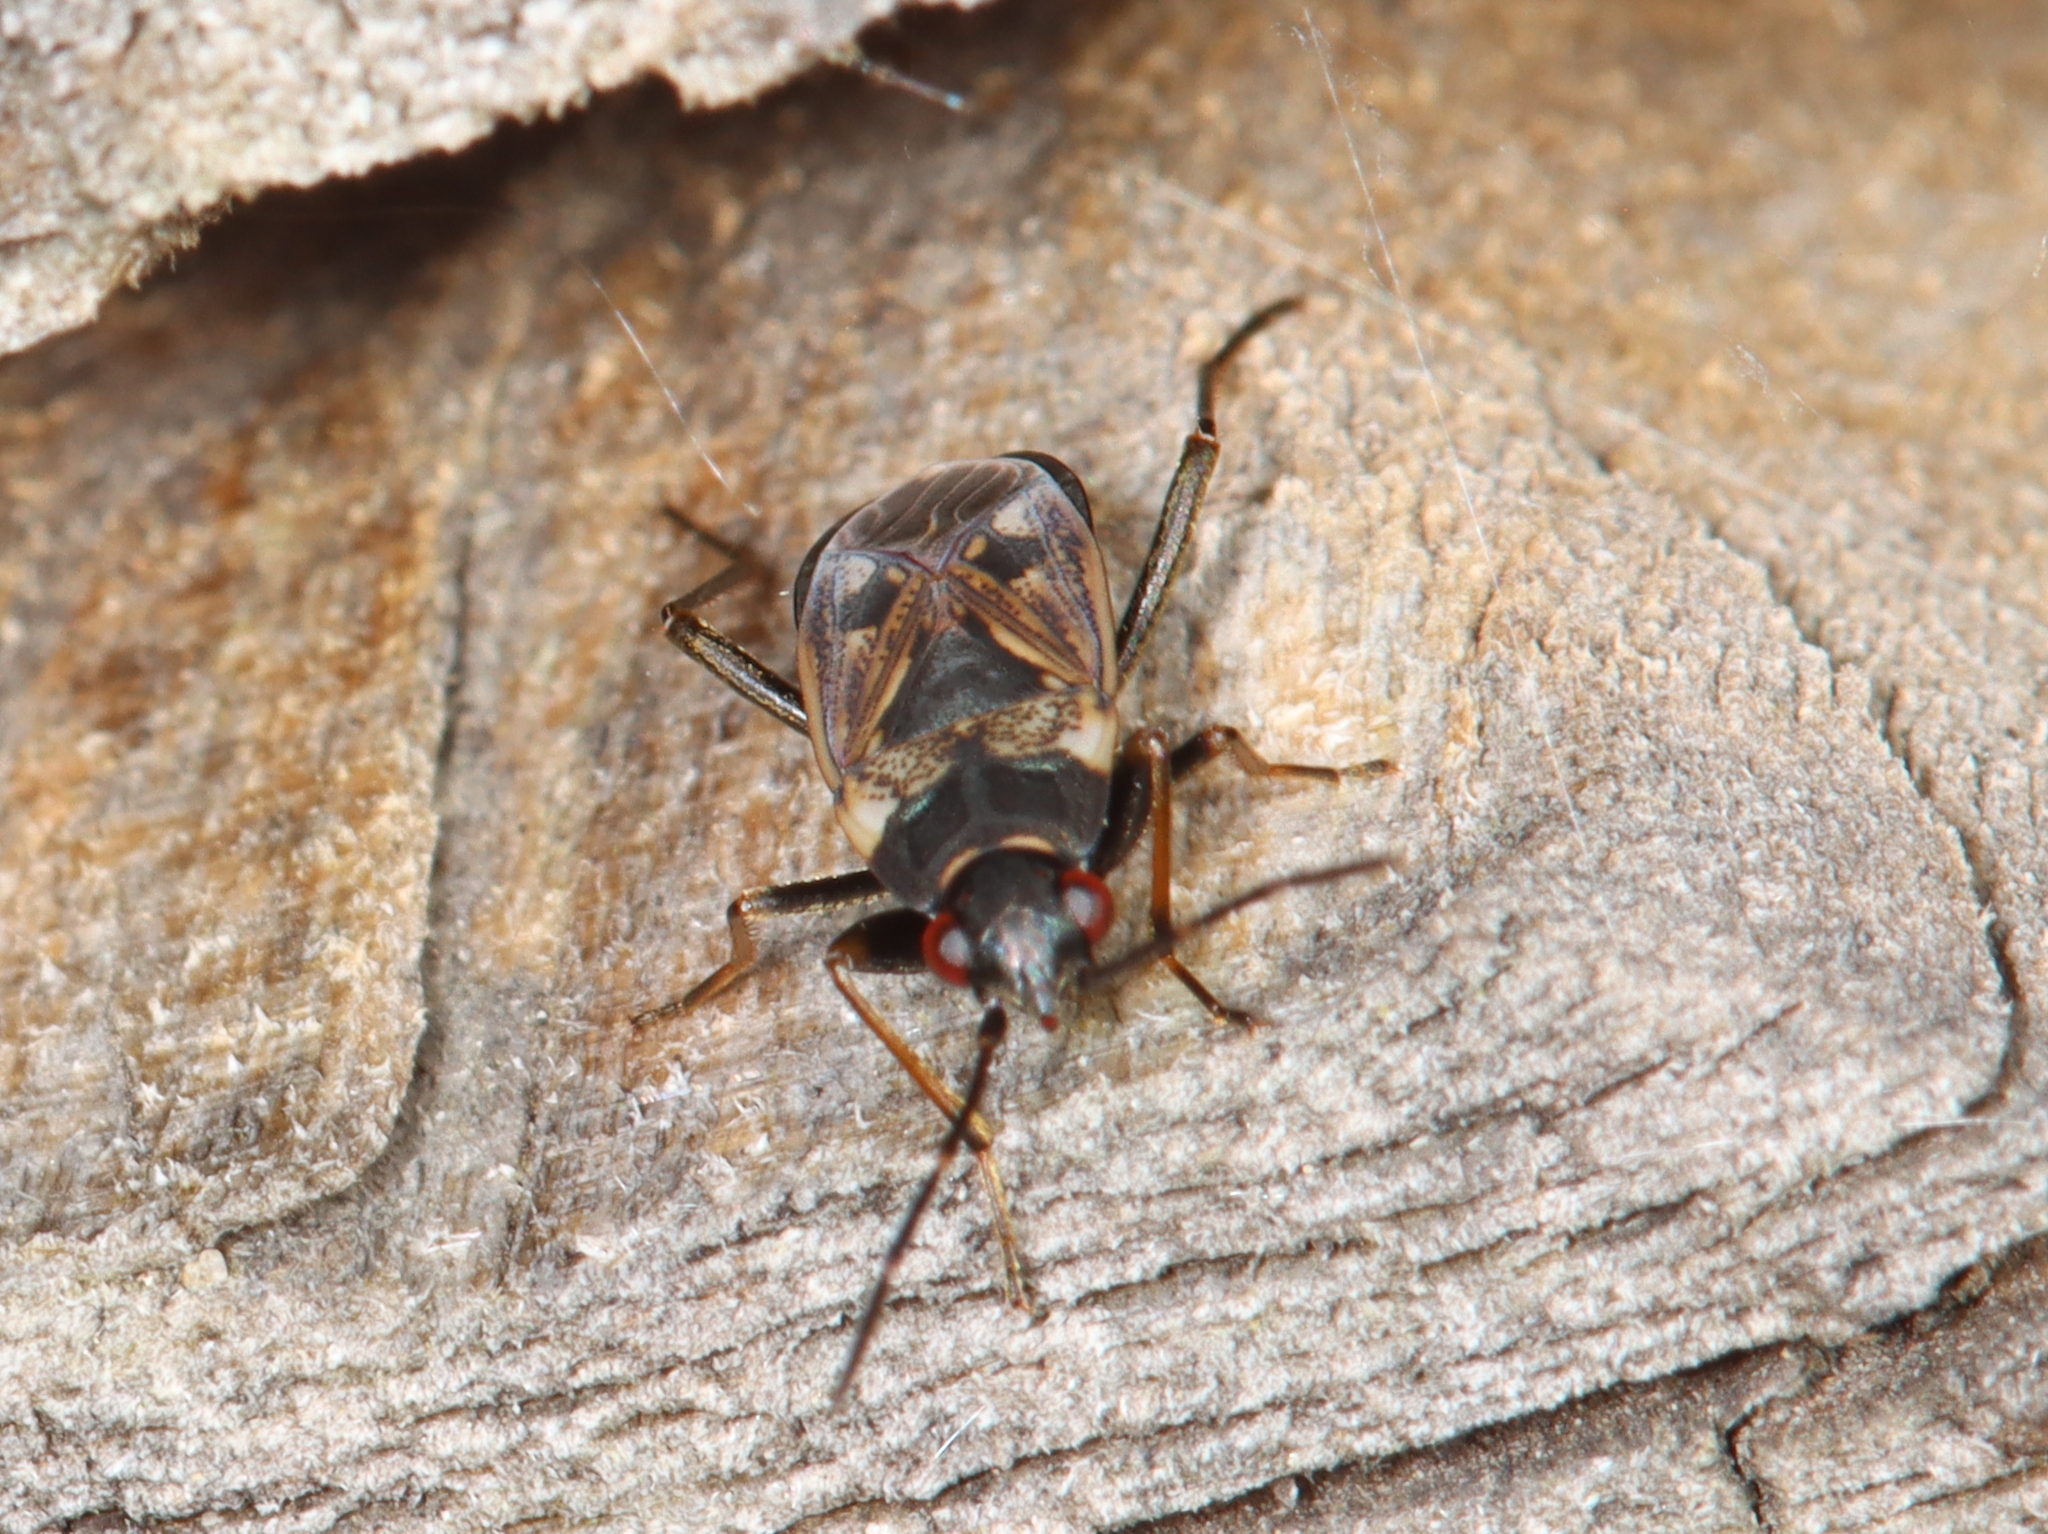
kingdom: Animalia
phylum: Arthropoda
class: Insecta
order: Hemiptera
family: Rhyparochromidae
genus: Rhyparochromus
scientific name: Rhyparochromus vulgaris
